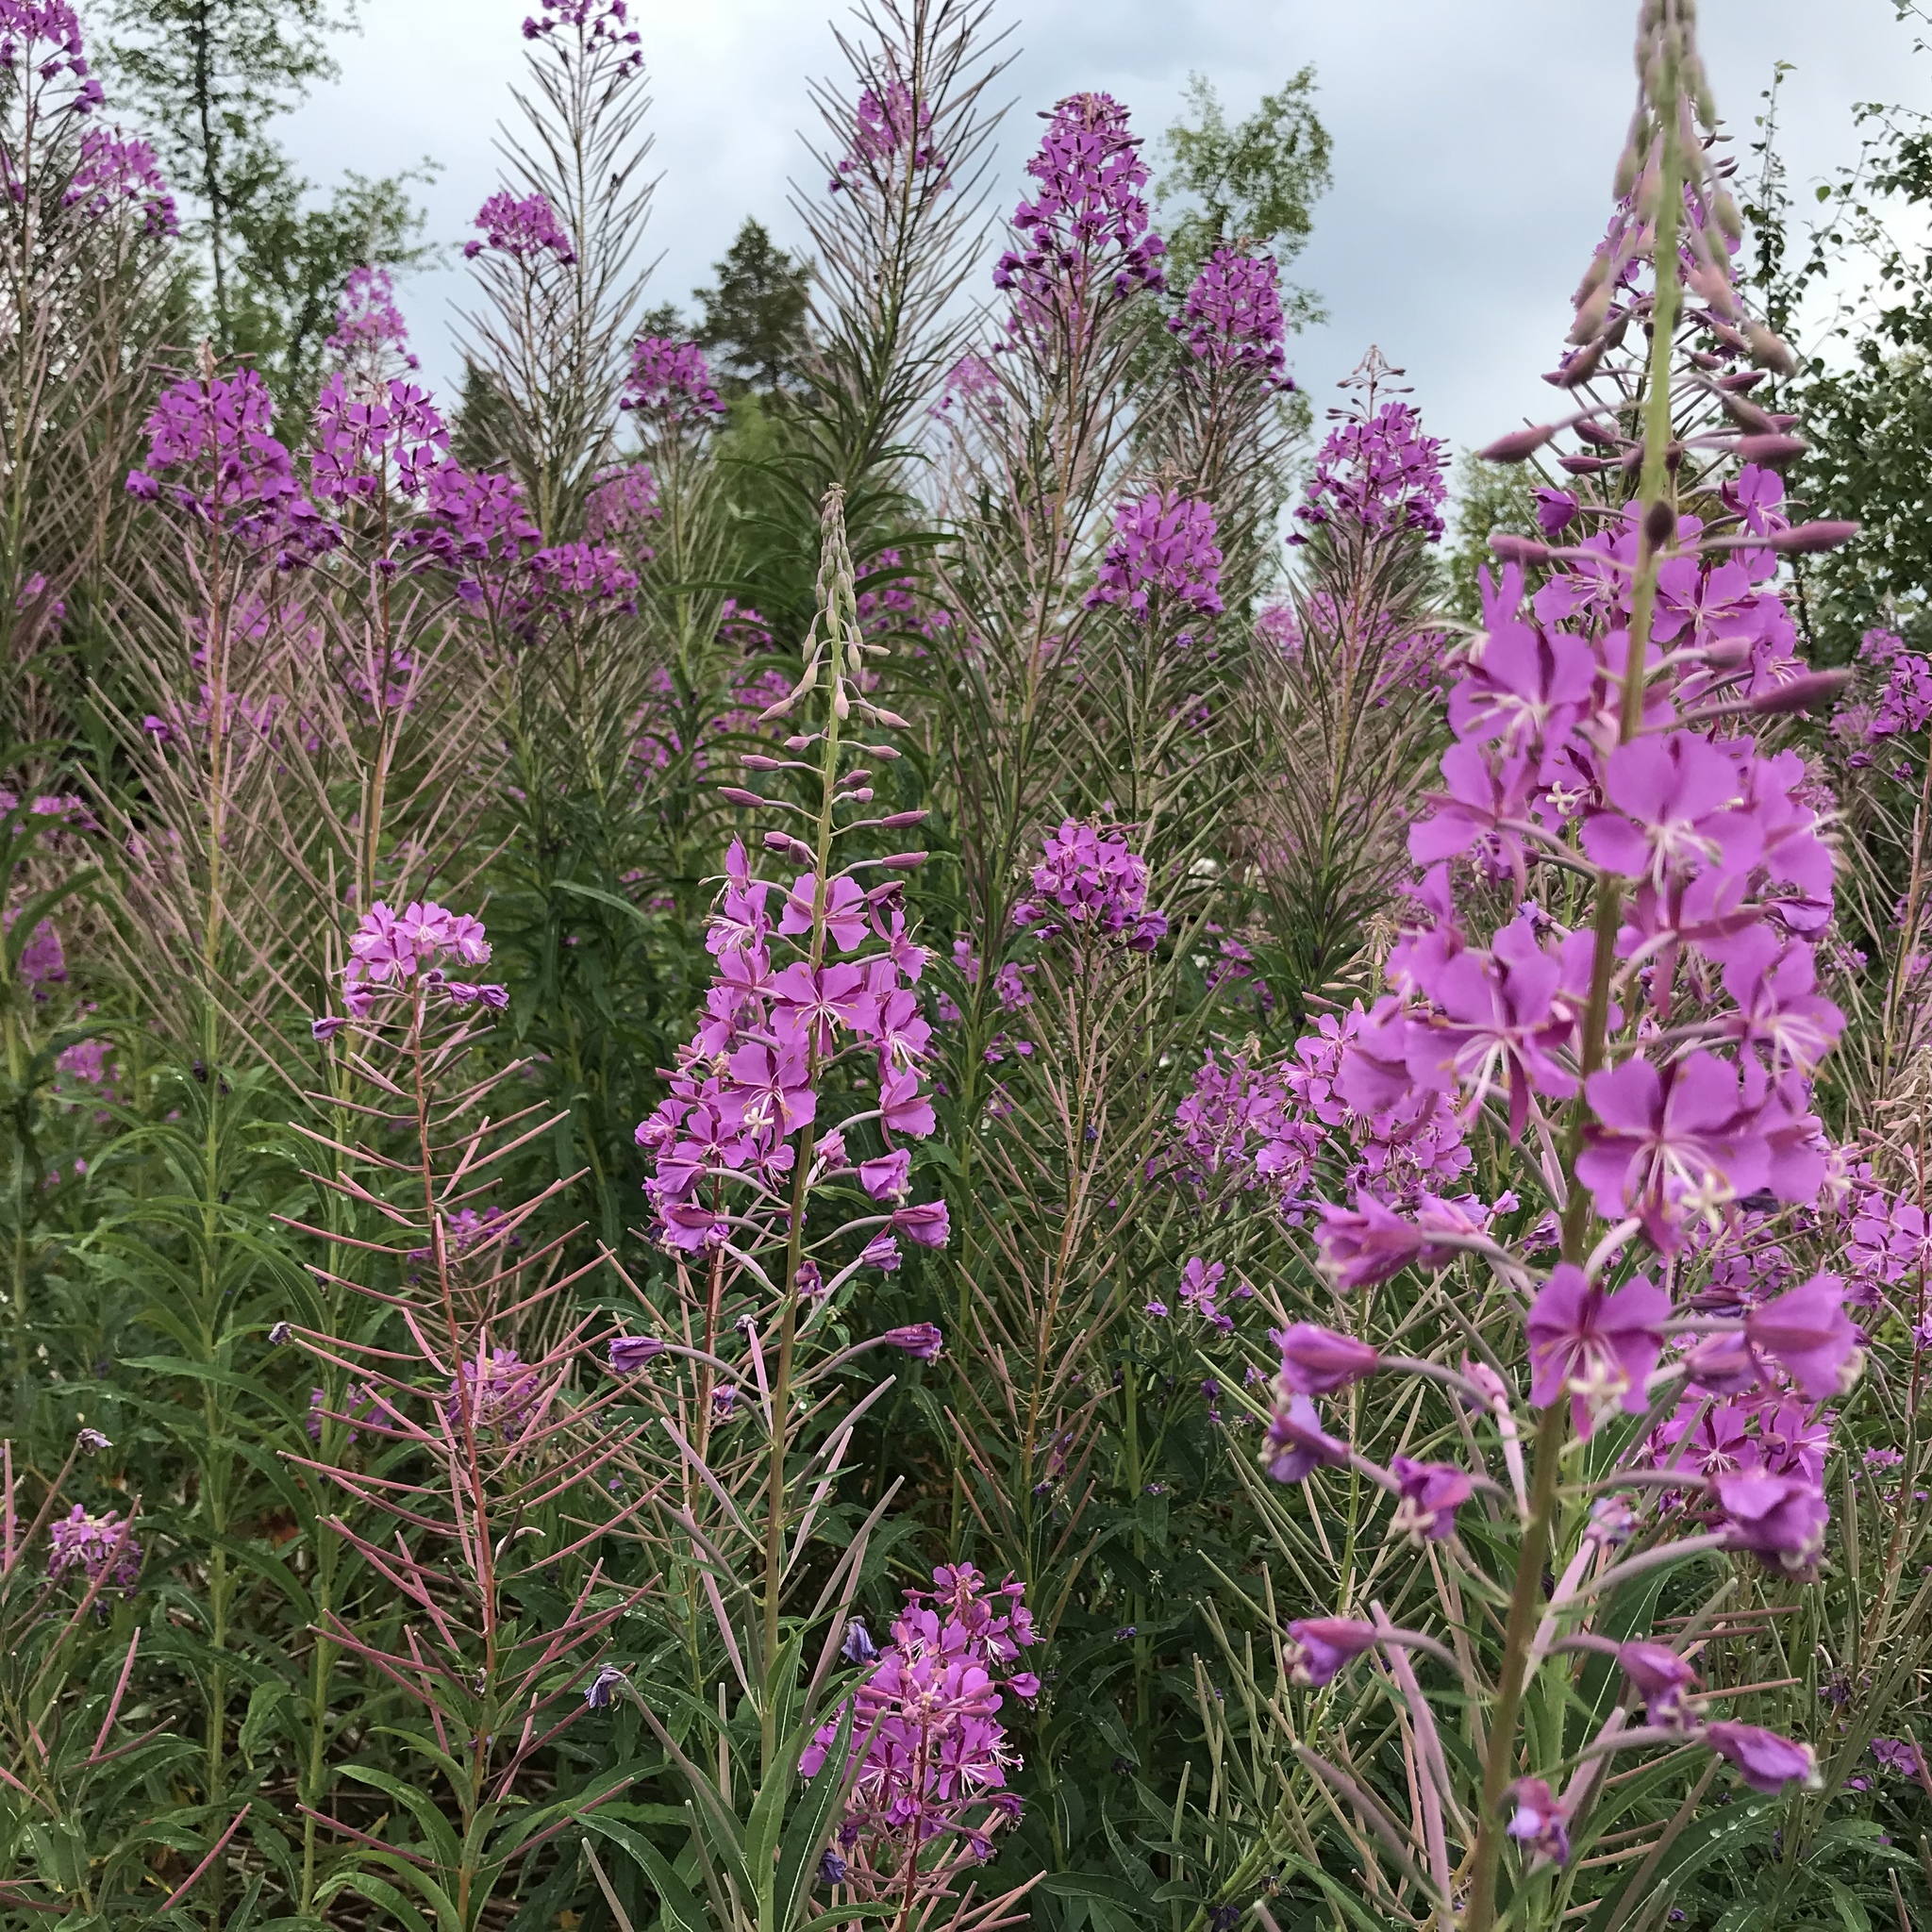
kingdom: Plantae
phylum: Tracheophyta
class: Magnoliopsida
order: Myrtales
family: Onagraceae
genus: Chamaenerion
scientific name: Chamaenerion angustifolium
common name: Fireweed
